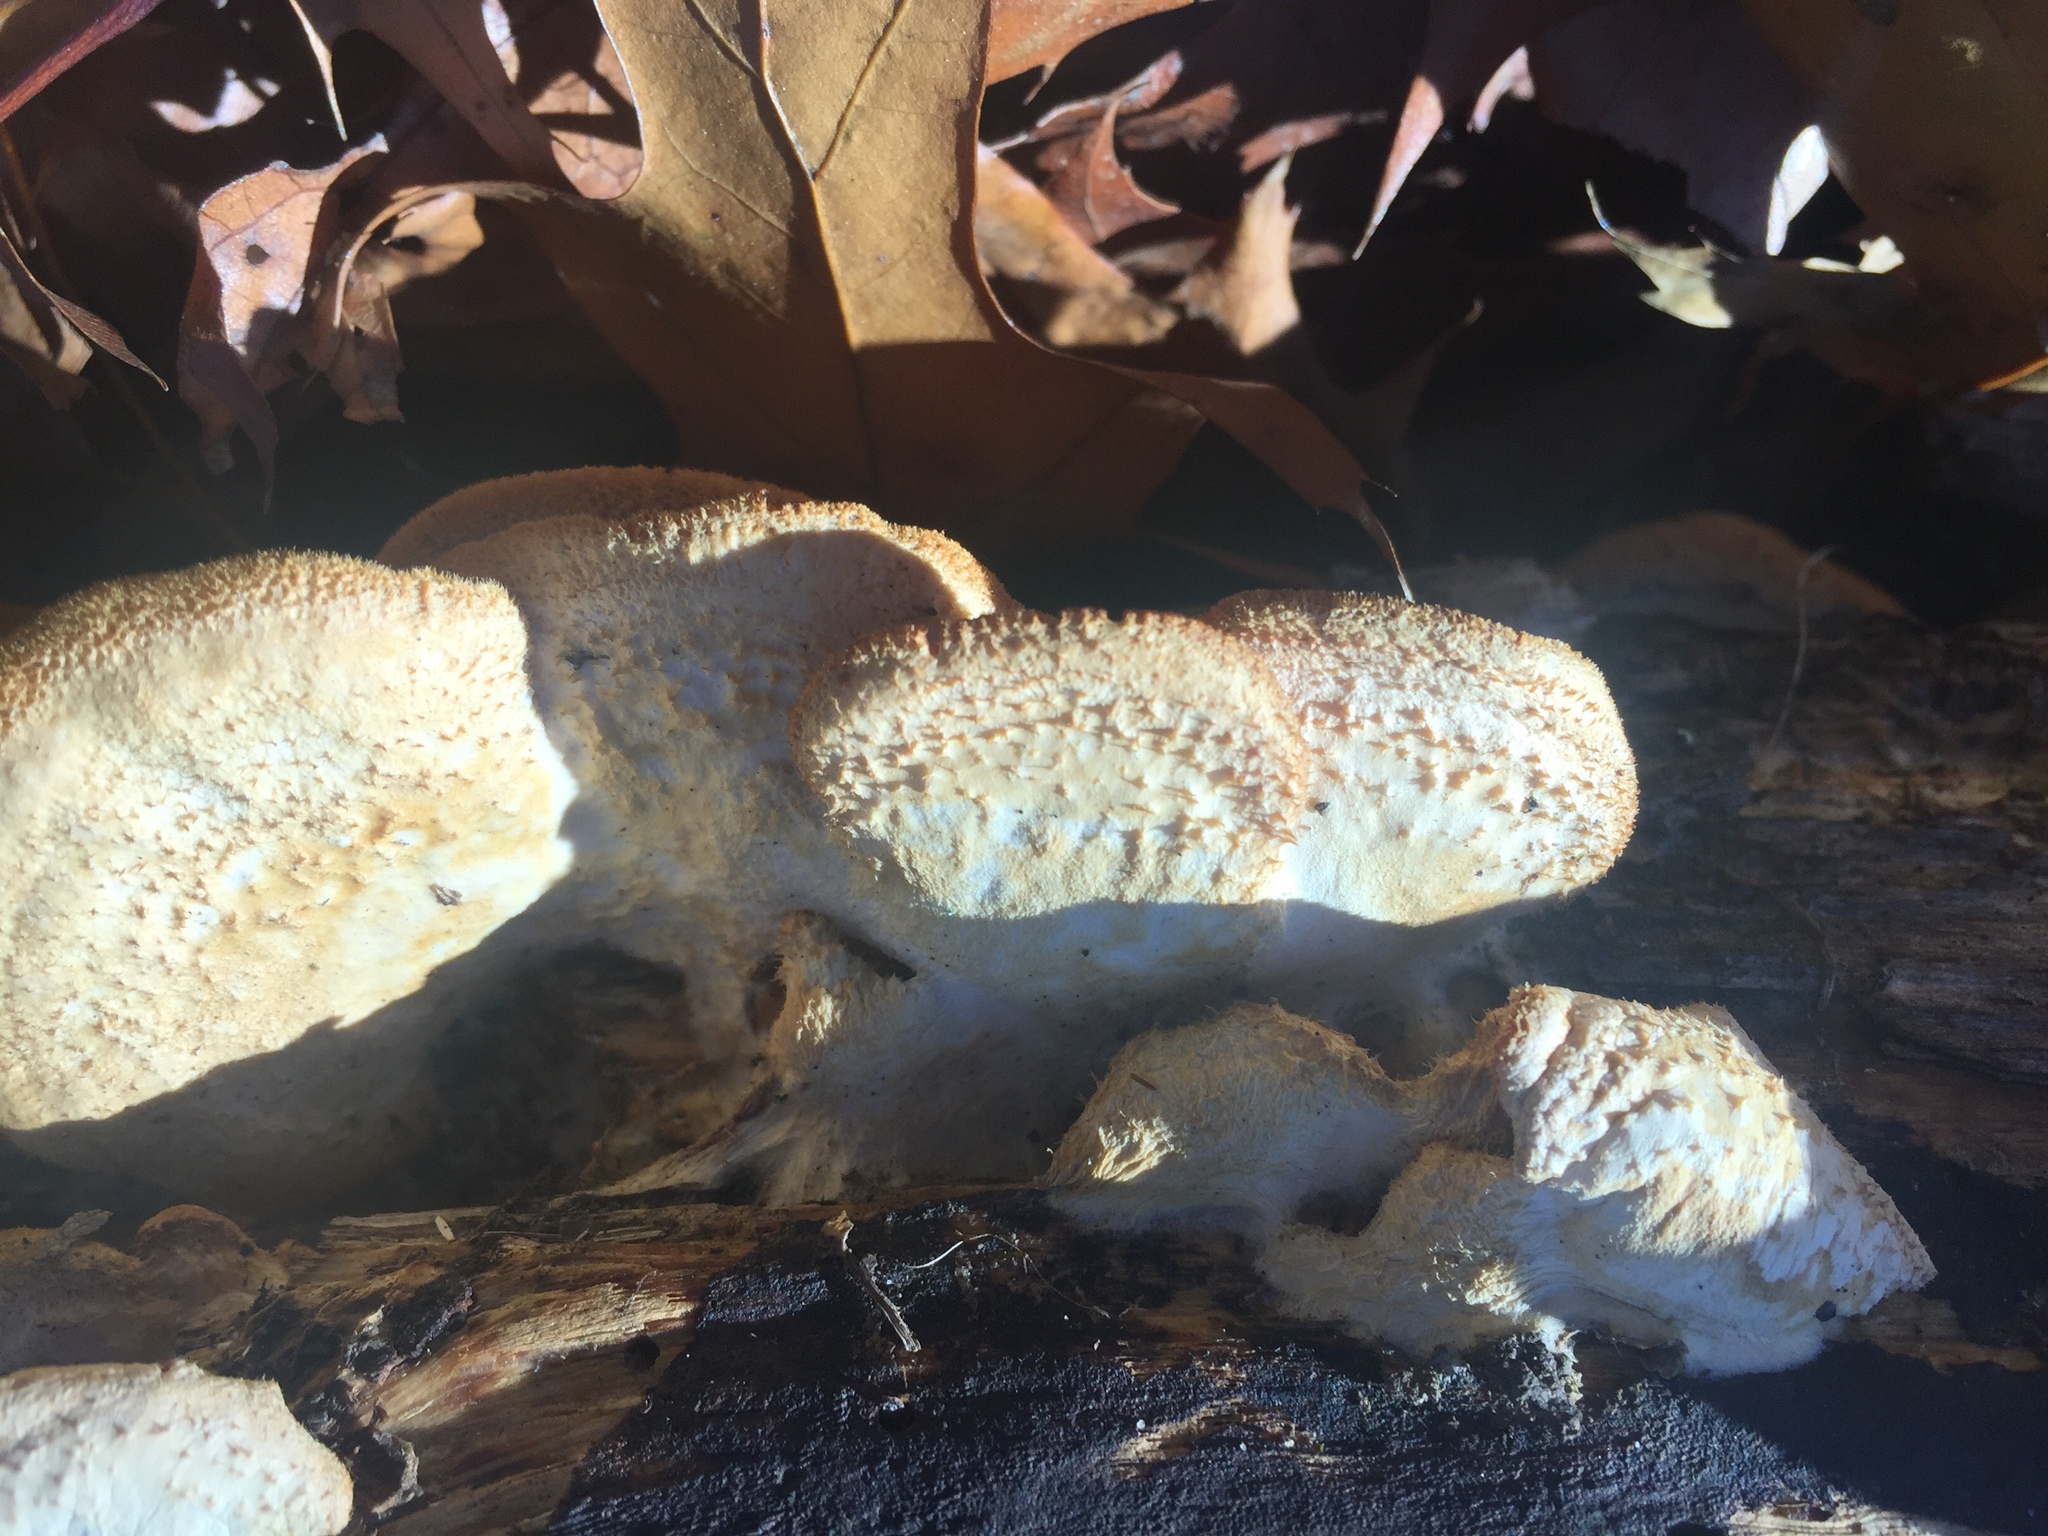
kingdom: Fungi
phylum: Basidiomycota
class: Agaricomycetes
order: Agaricales
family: Phyllotopsidaceae
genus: Phyllotopsis
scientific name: Phyllotopsis nidulans
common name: Orange mock oyster
